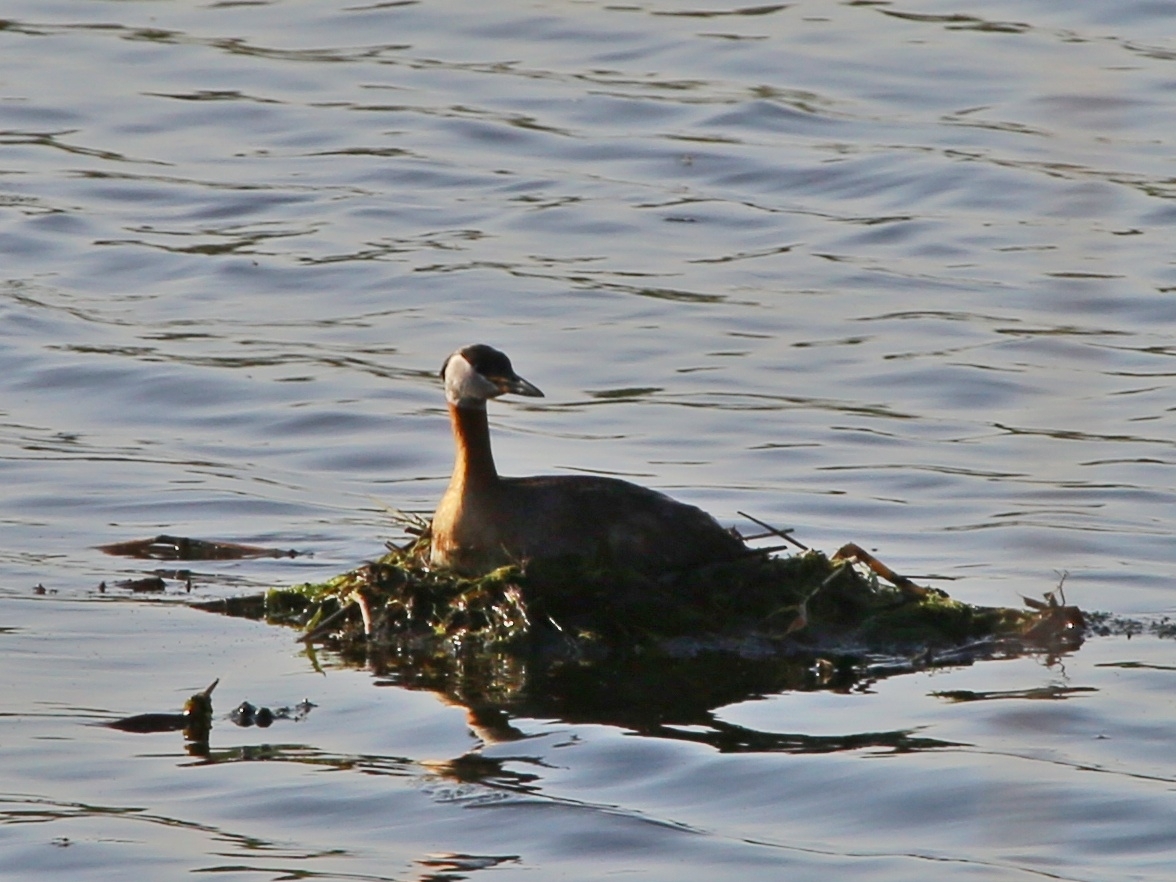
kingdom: Animalia
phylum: Chordata
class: Aves
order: Podicipediformes
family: Podicipedidae
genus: Podiceps
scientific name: Podiceps grisegena
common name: Red-necked grebe
